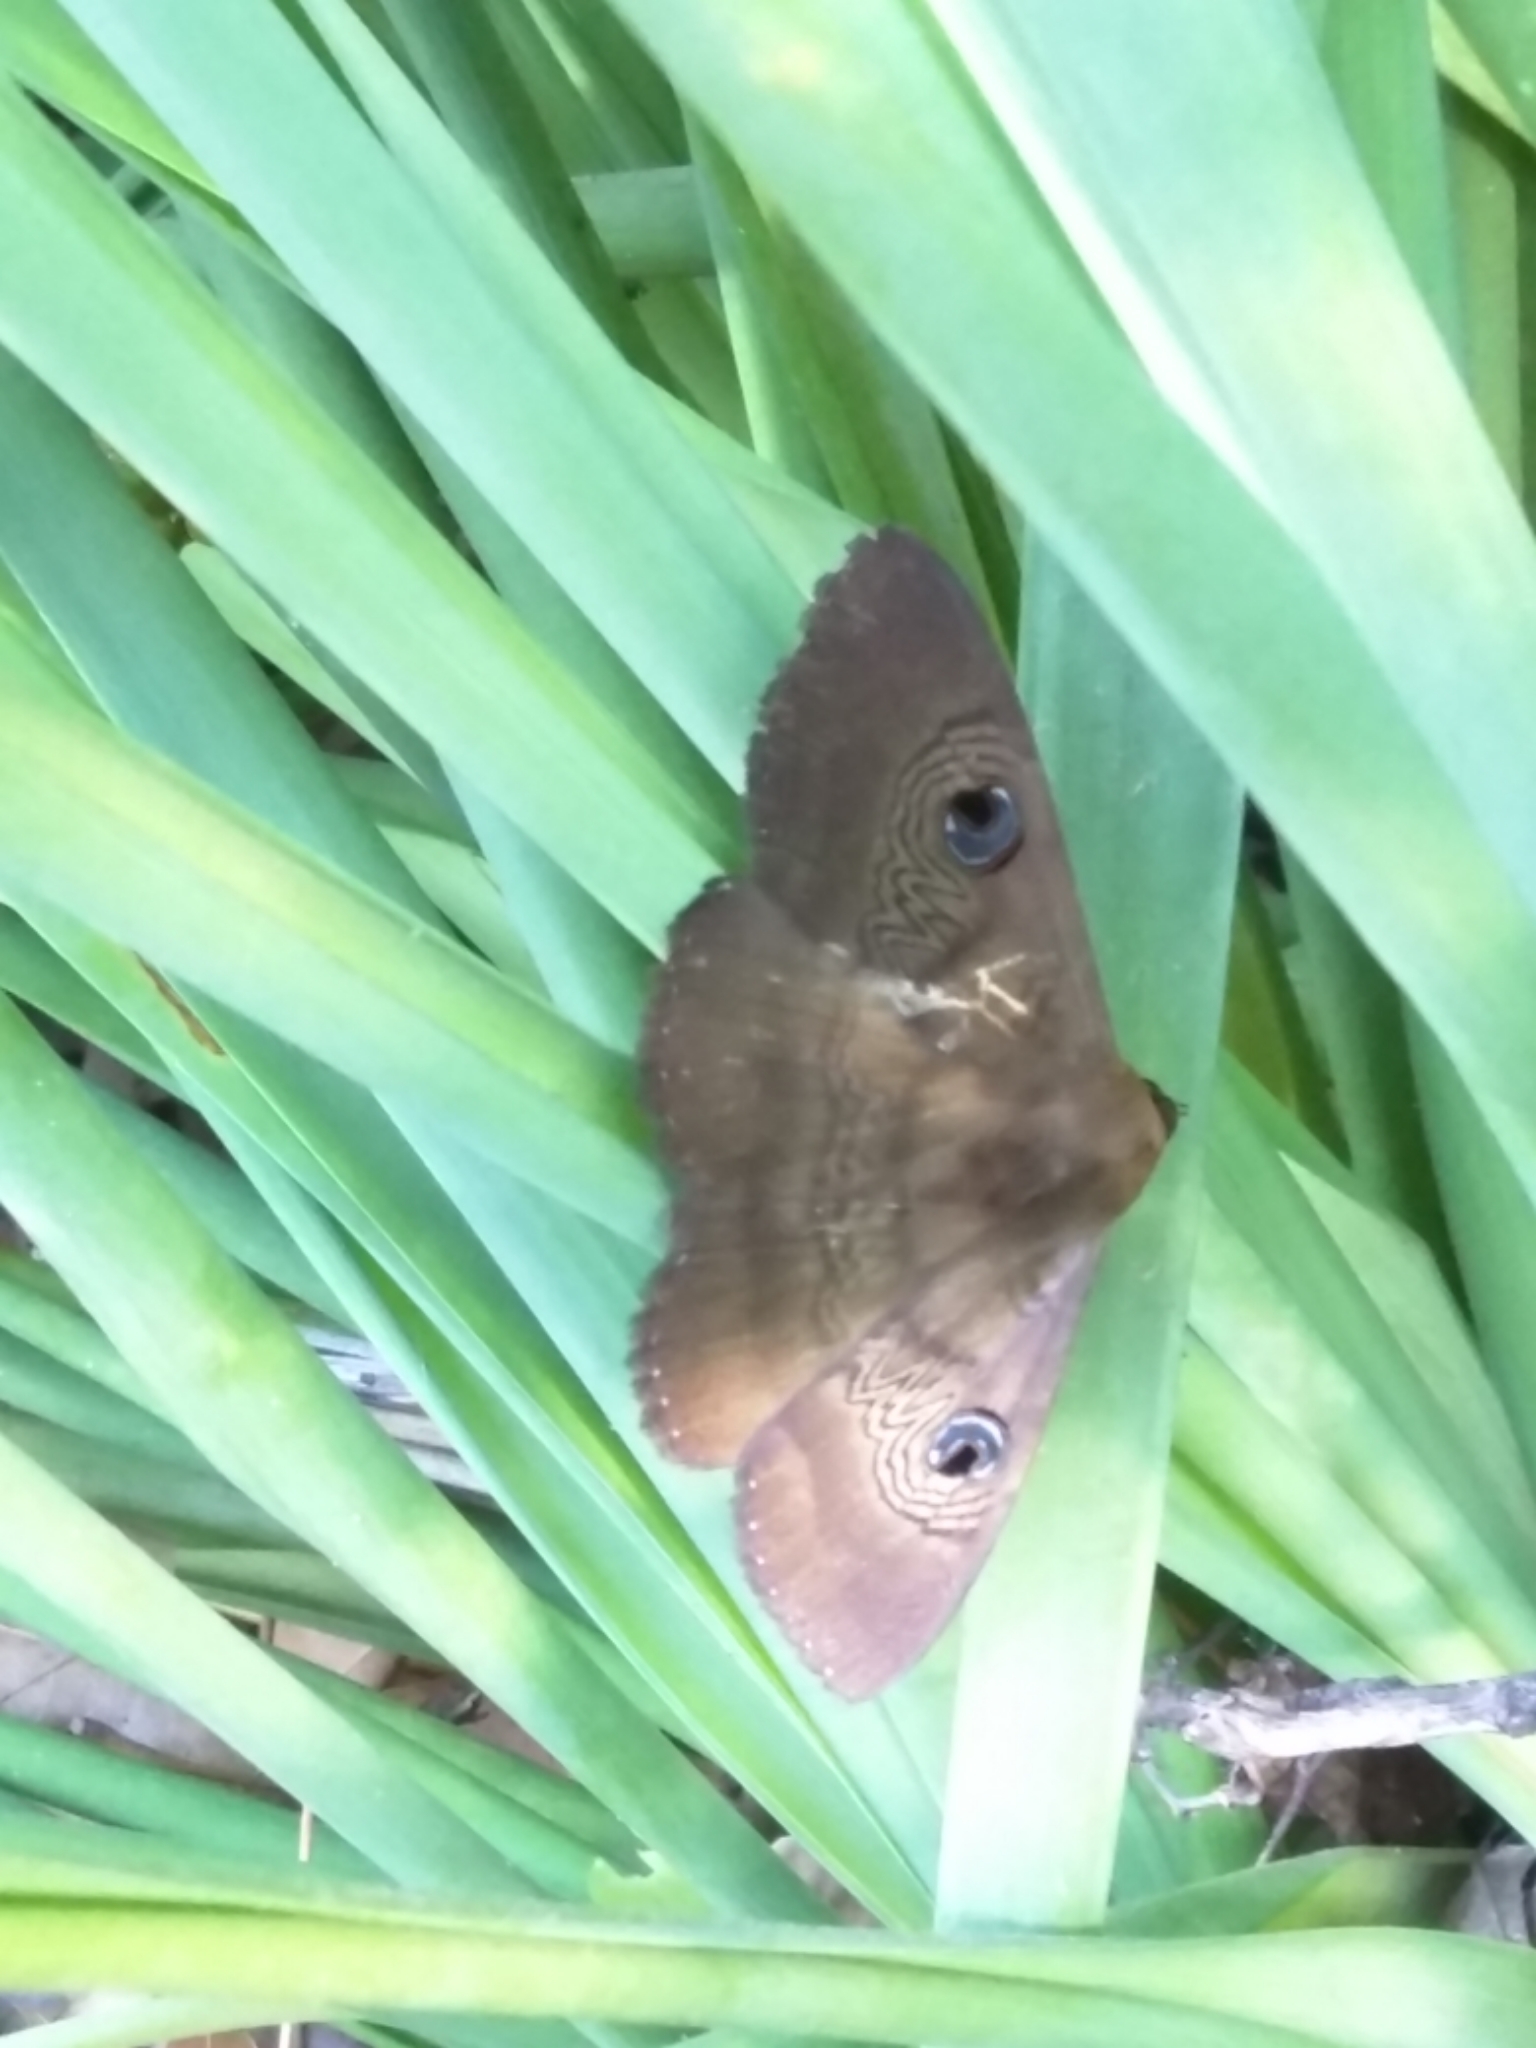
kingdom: Animalia
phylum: Arthropoda
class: Insecta
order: Lepidoptera
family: Erebidae
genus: Dasypodia
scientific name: Dasypodia selenophora
